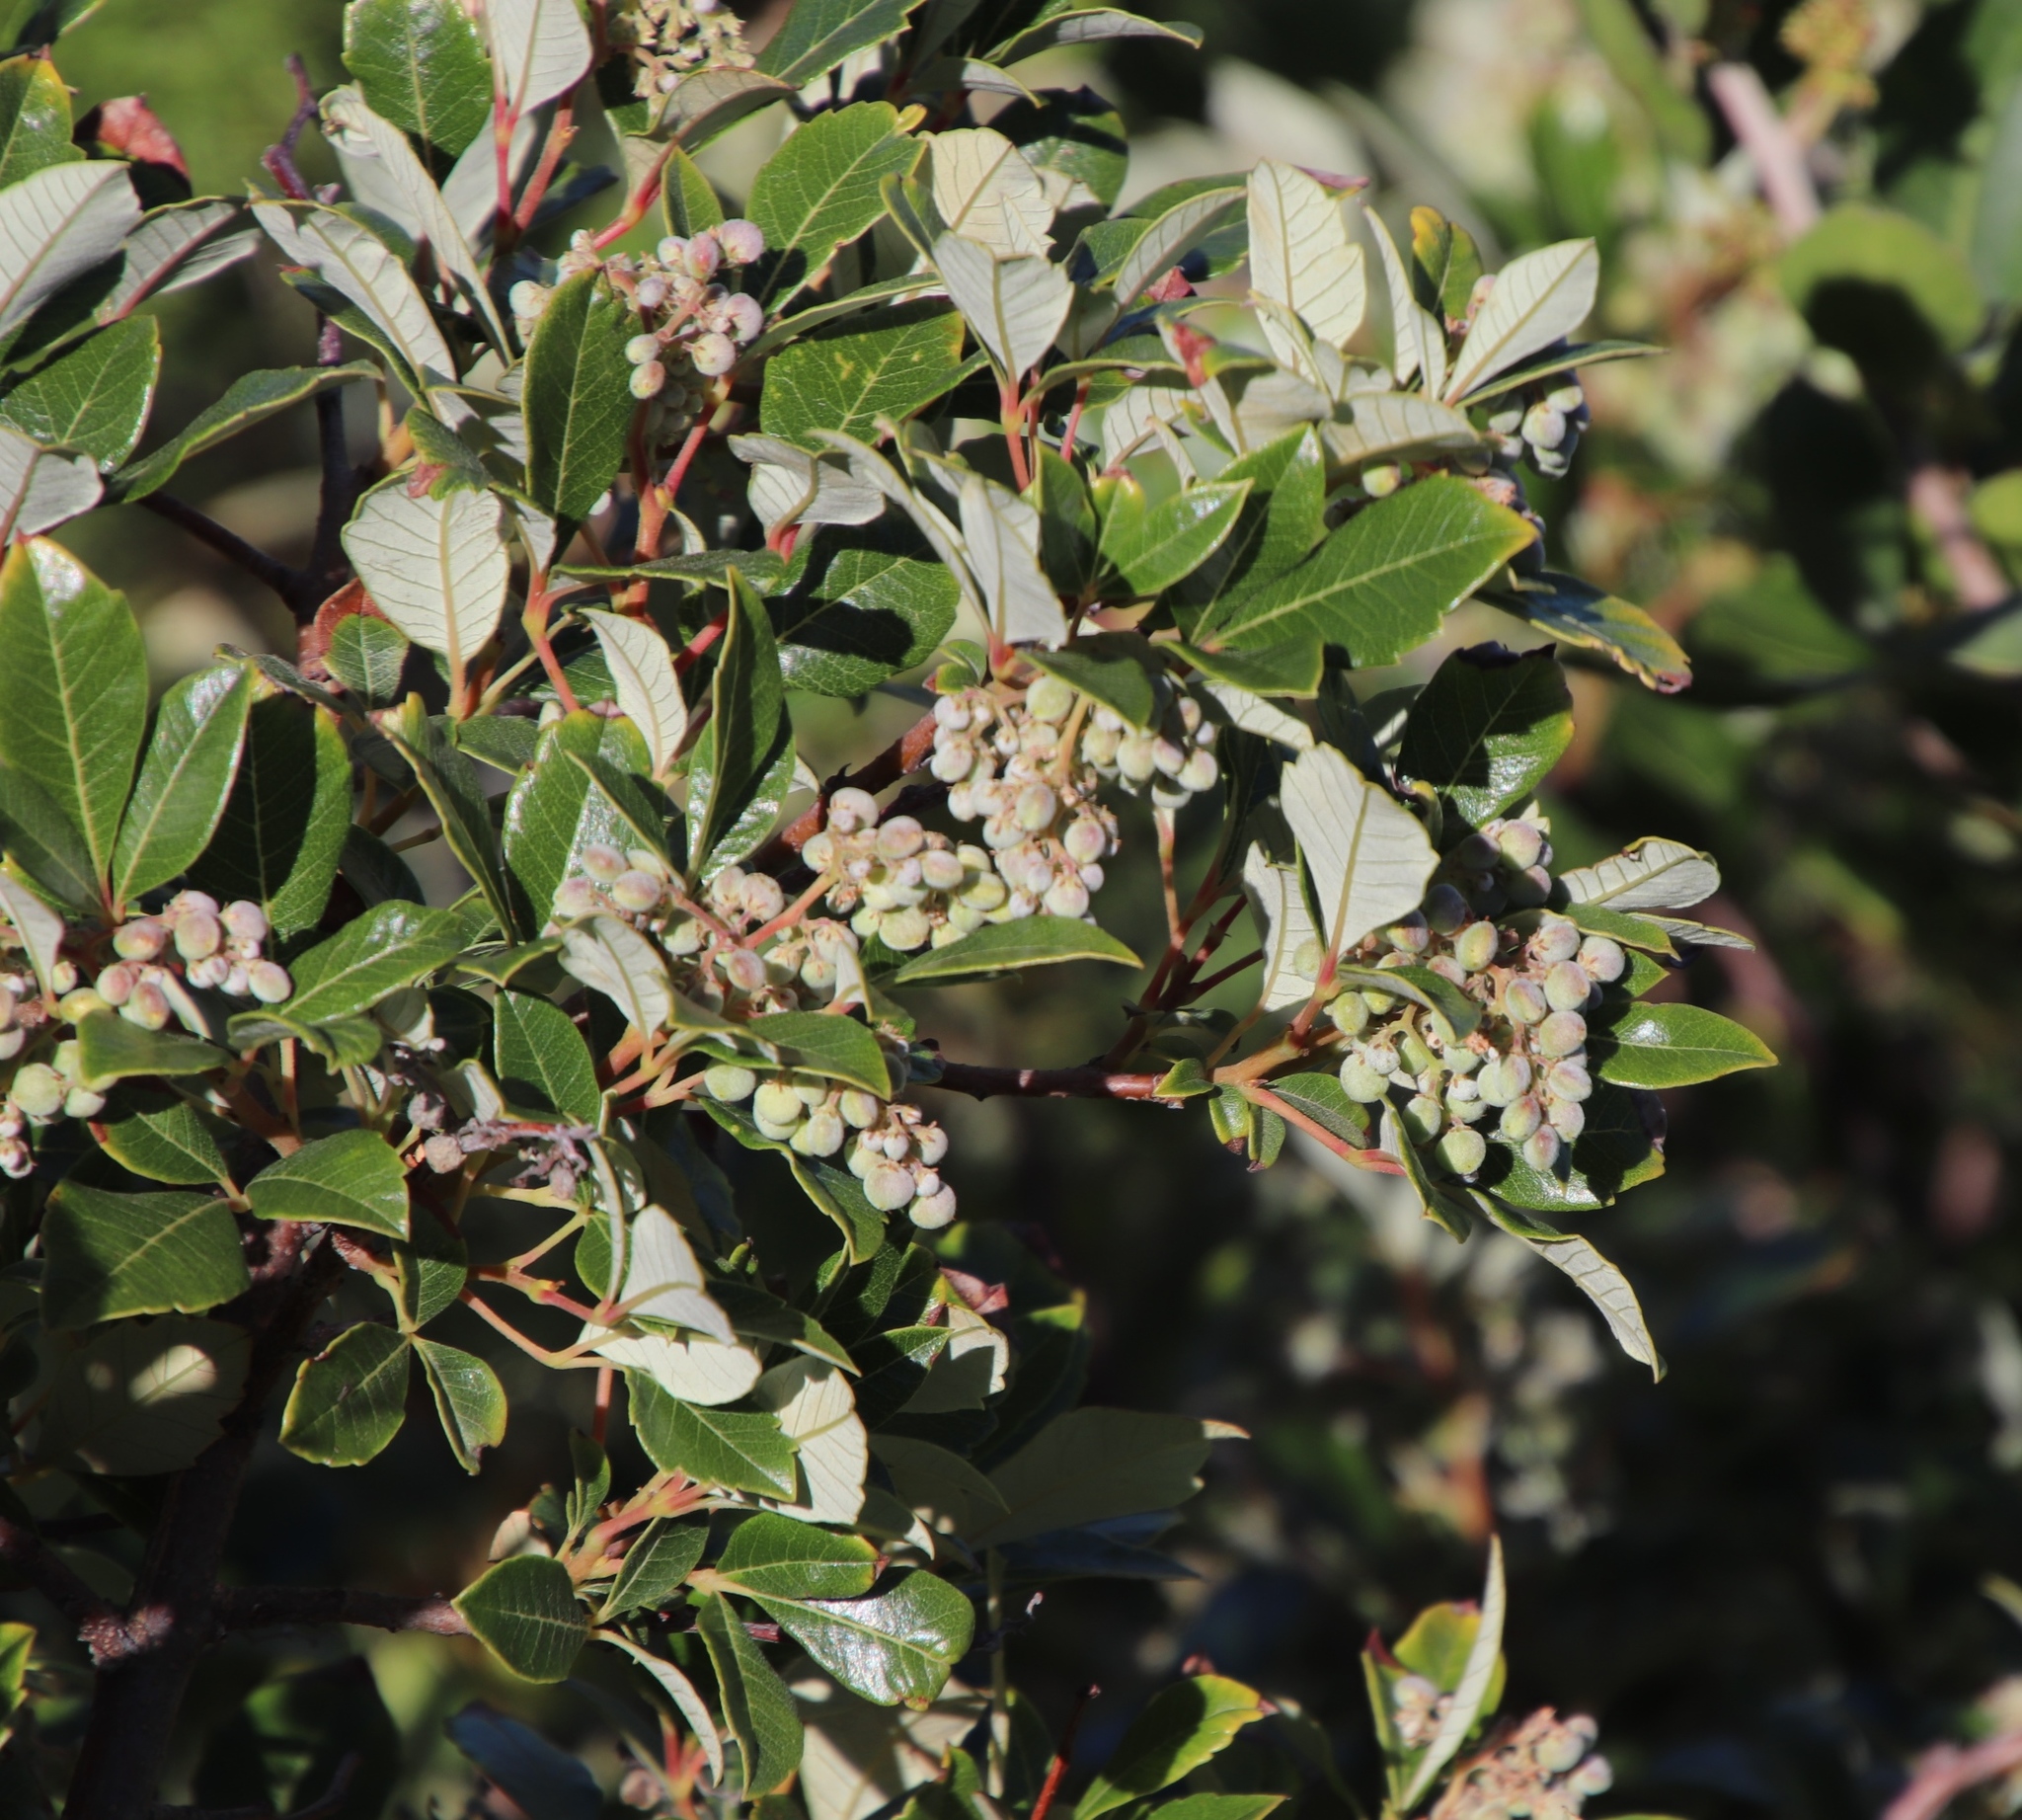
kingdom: Plantae
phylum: Tracheophyta
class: Magnoliopsida
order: Sapindales
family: Anacardiaceae
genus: Searsia
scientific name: Searsia tomentosa
